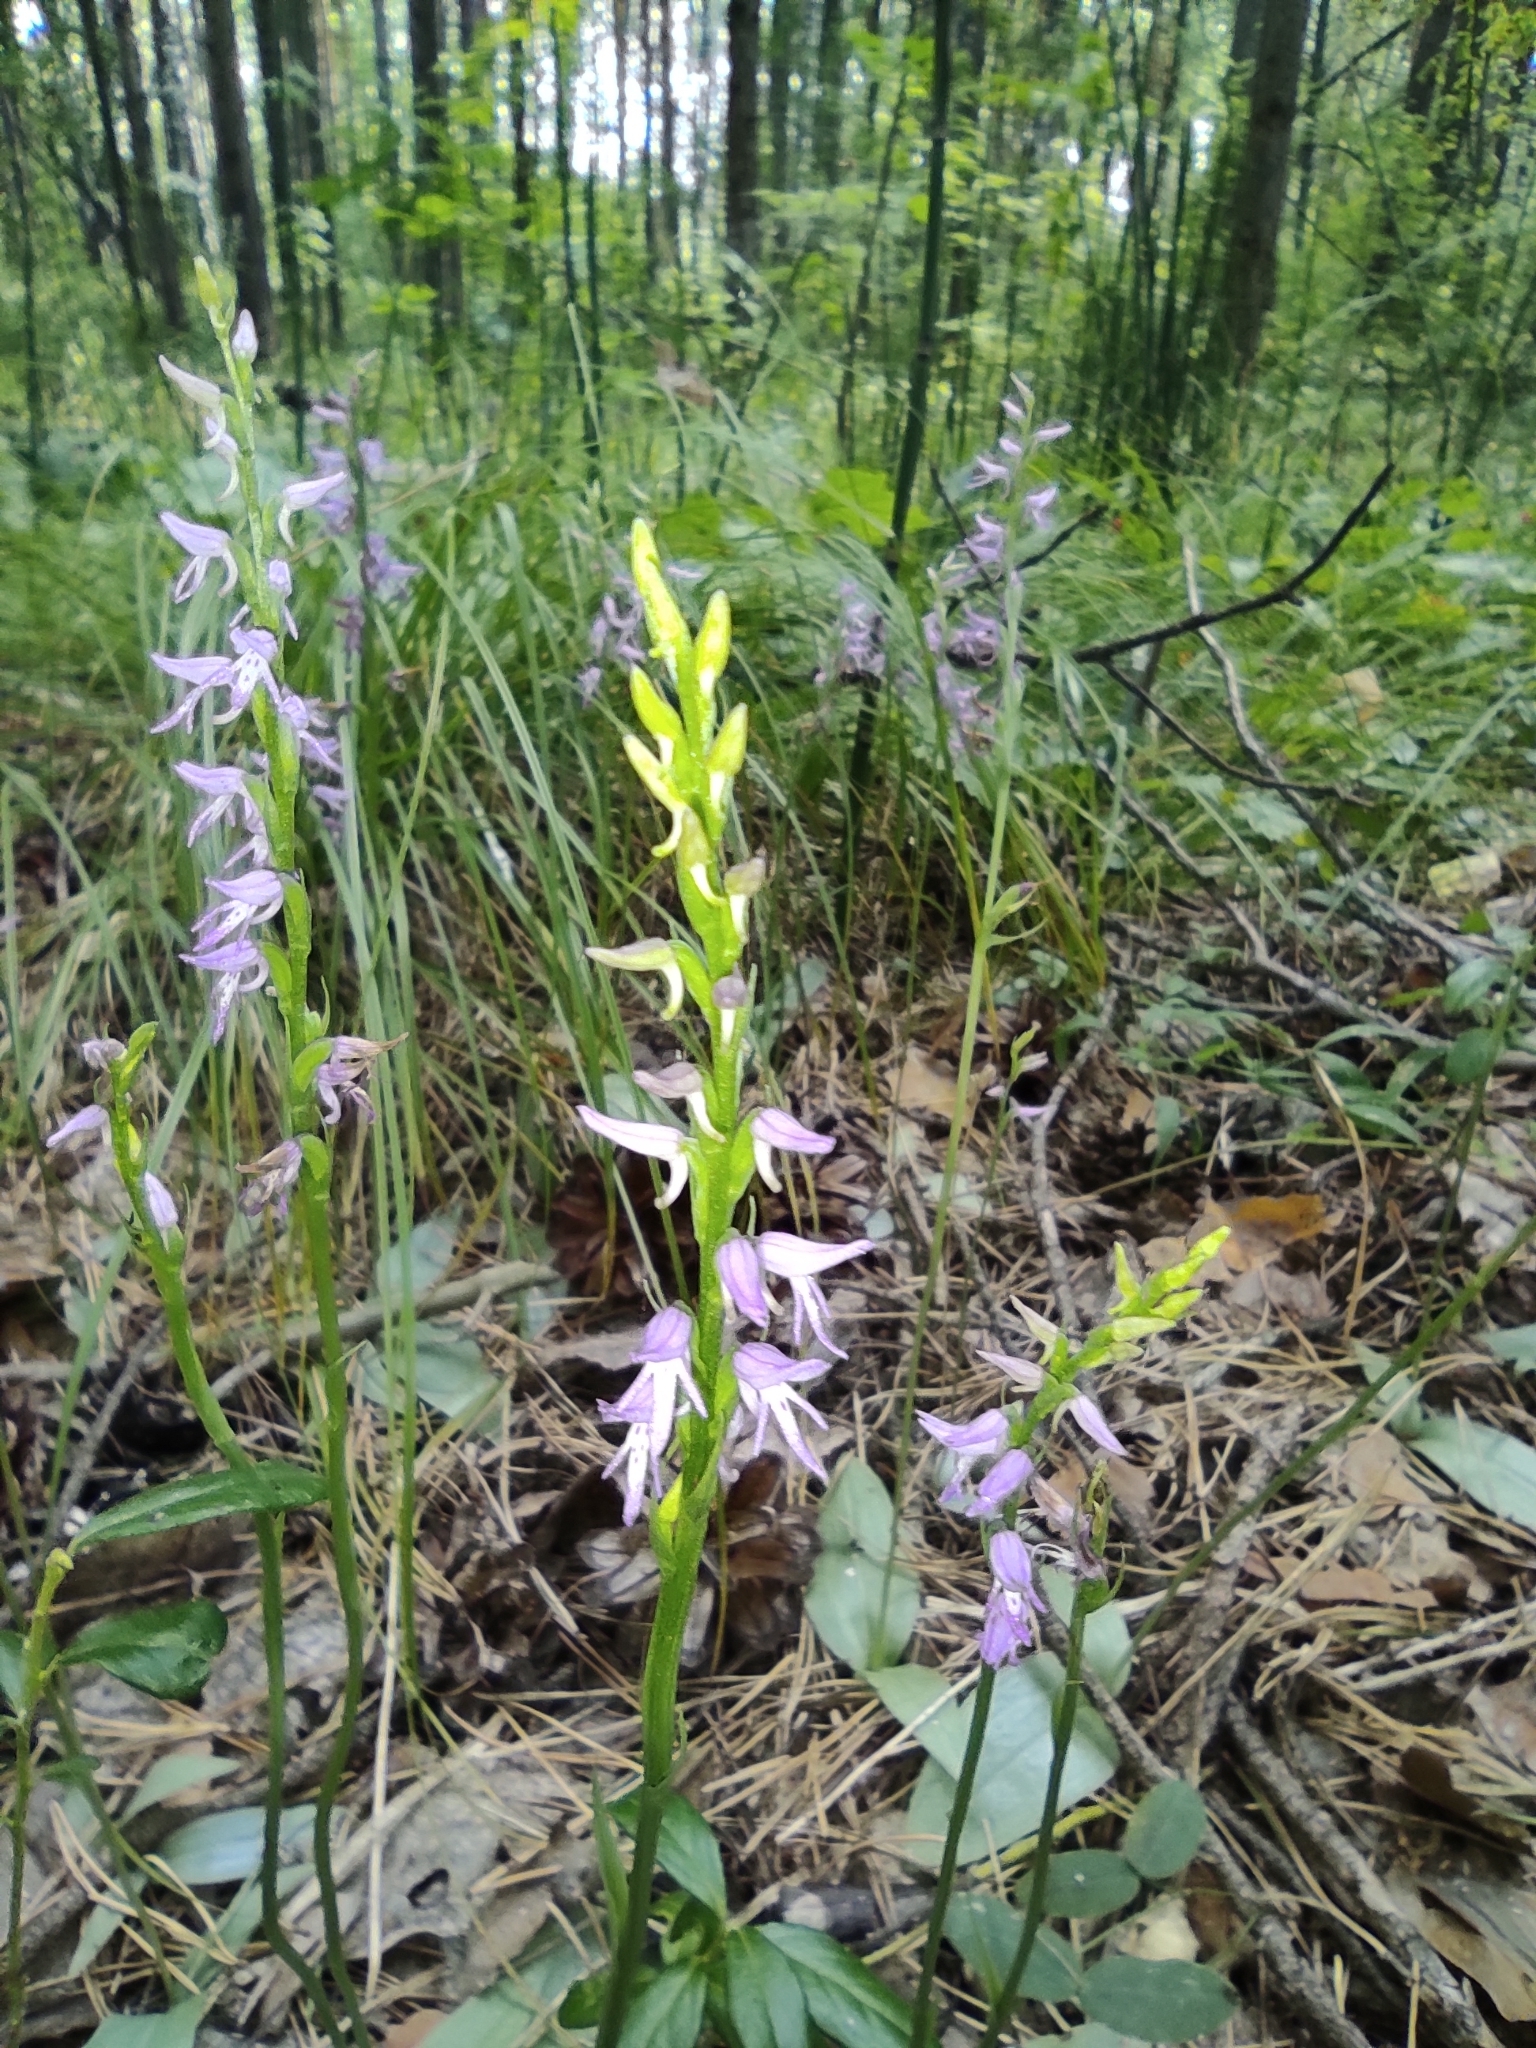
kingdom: Plantae
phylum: Tracheophyta
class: Liliopsida
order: Asparagales
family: Orchidaceae
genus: Hemipilia
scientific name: Hemipilia cucullata
